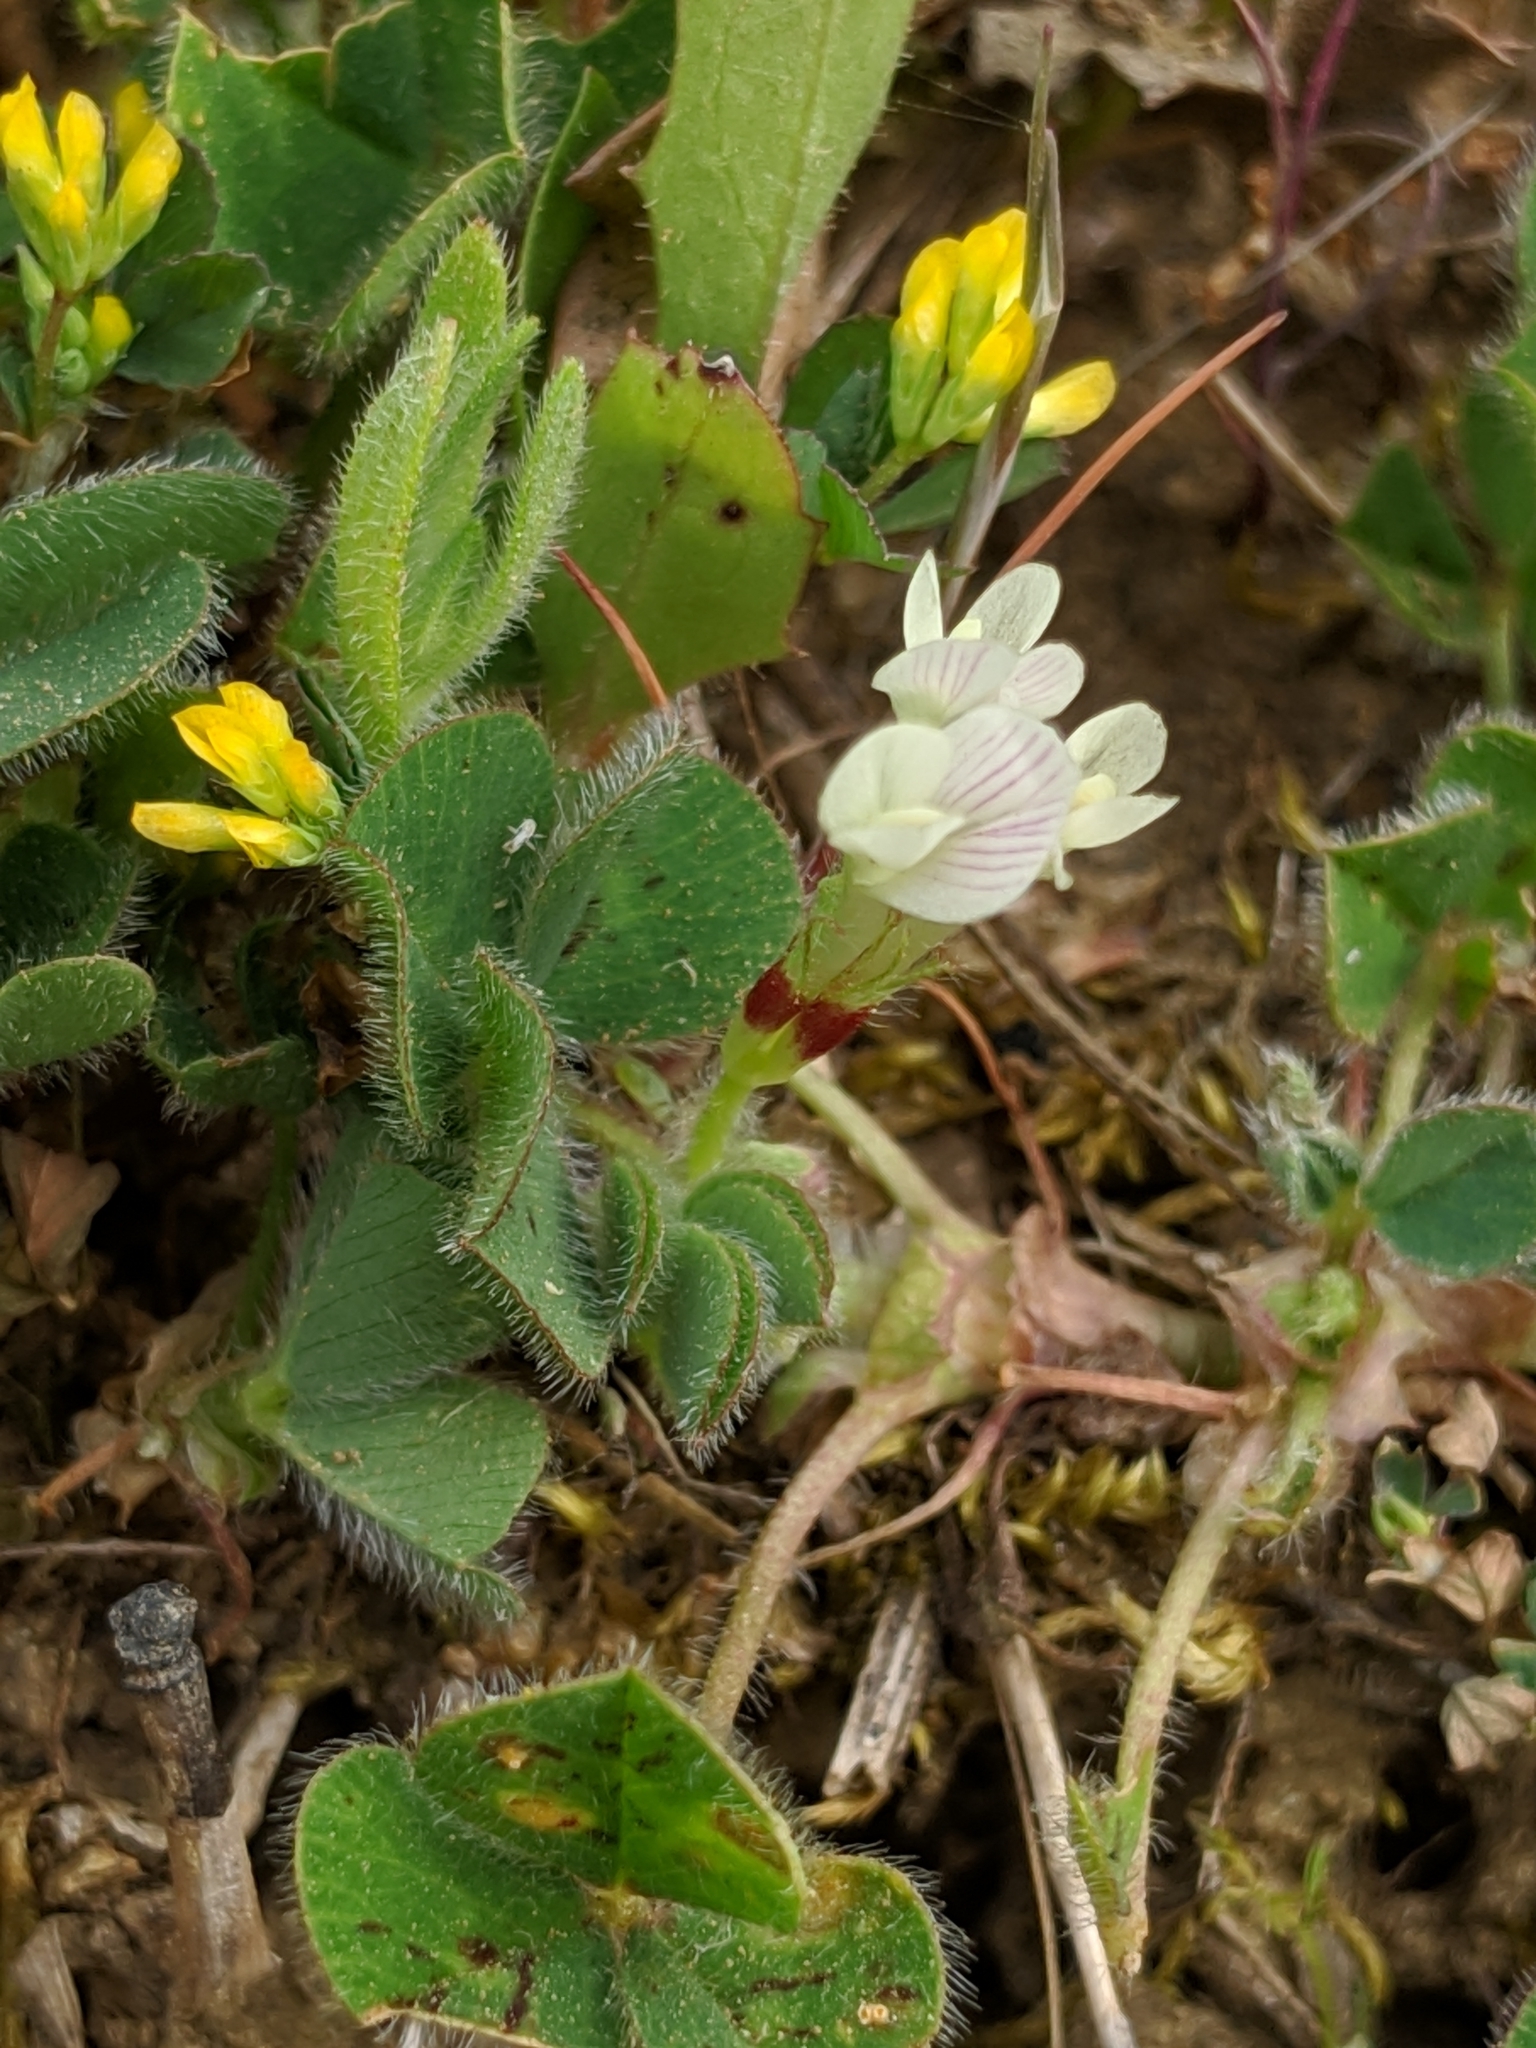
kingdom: Plantae
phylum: Tracheophyta
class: Magnoliopsida
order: Fabales
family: Fabaceae
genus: Trifolium
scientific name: Trifolium subterraneum
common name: Subterranean clover
